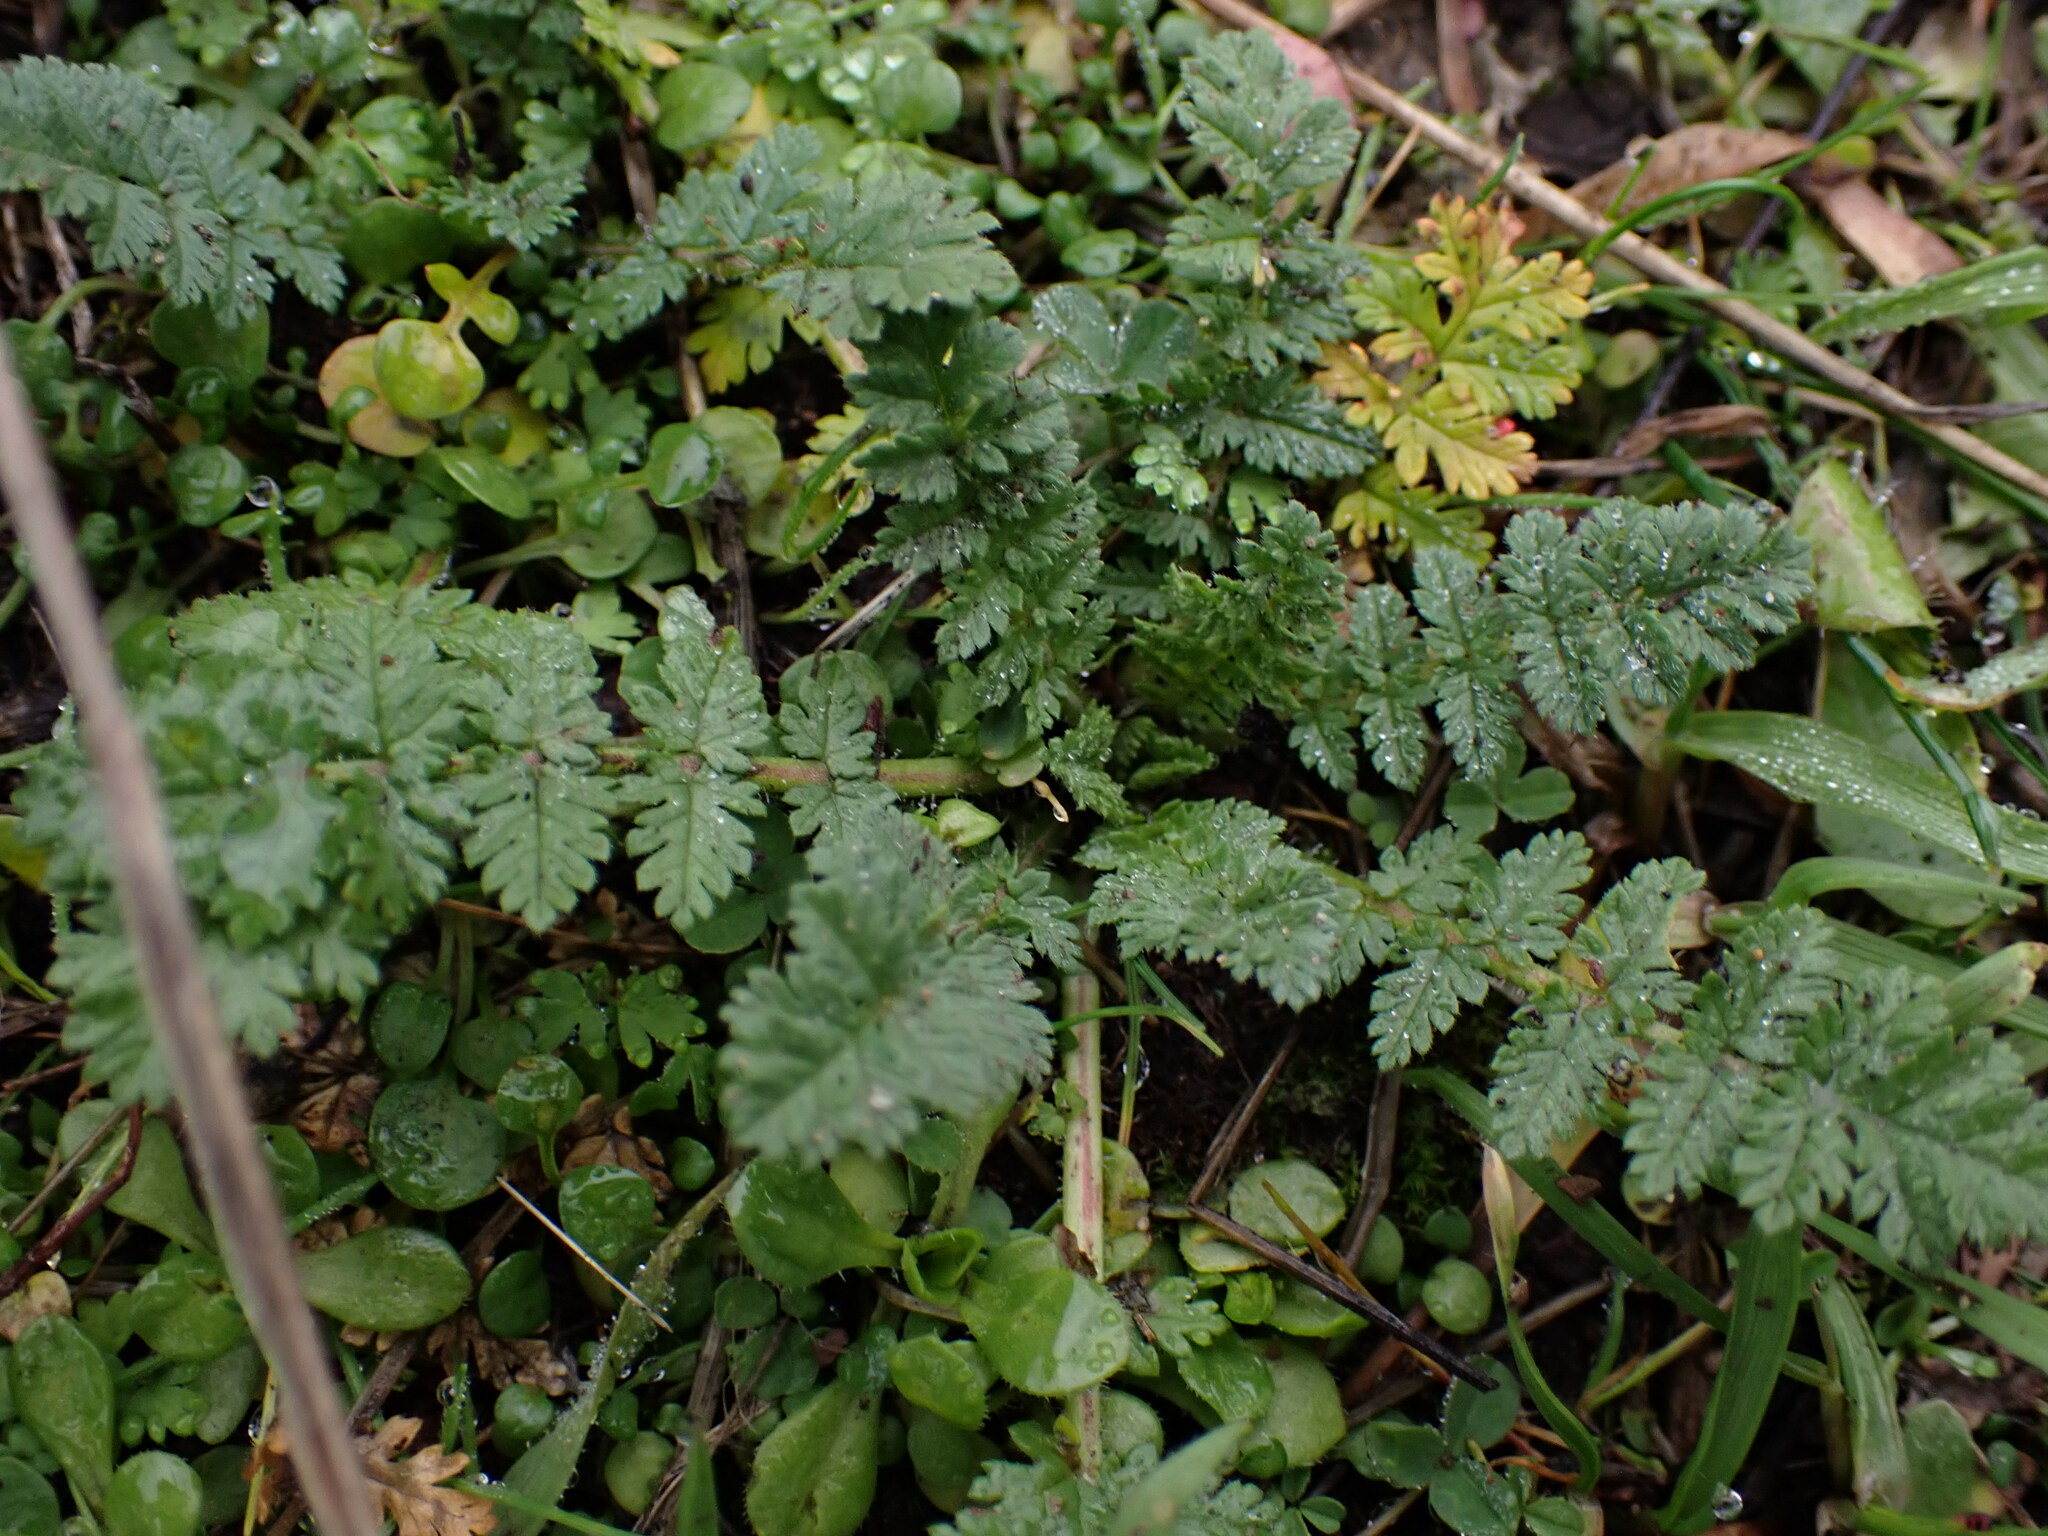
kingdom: Plantae
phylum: Tracheophyta
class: Magnoliopsida
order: Geraniales
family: Geraniaceae
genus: Erodium
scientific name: Erodium cicutarium
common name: Common stork's-bill
